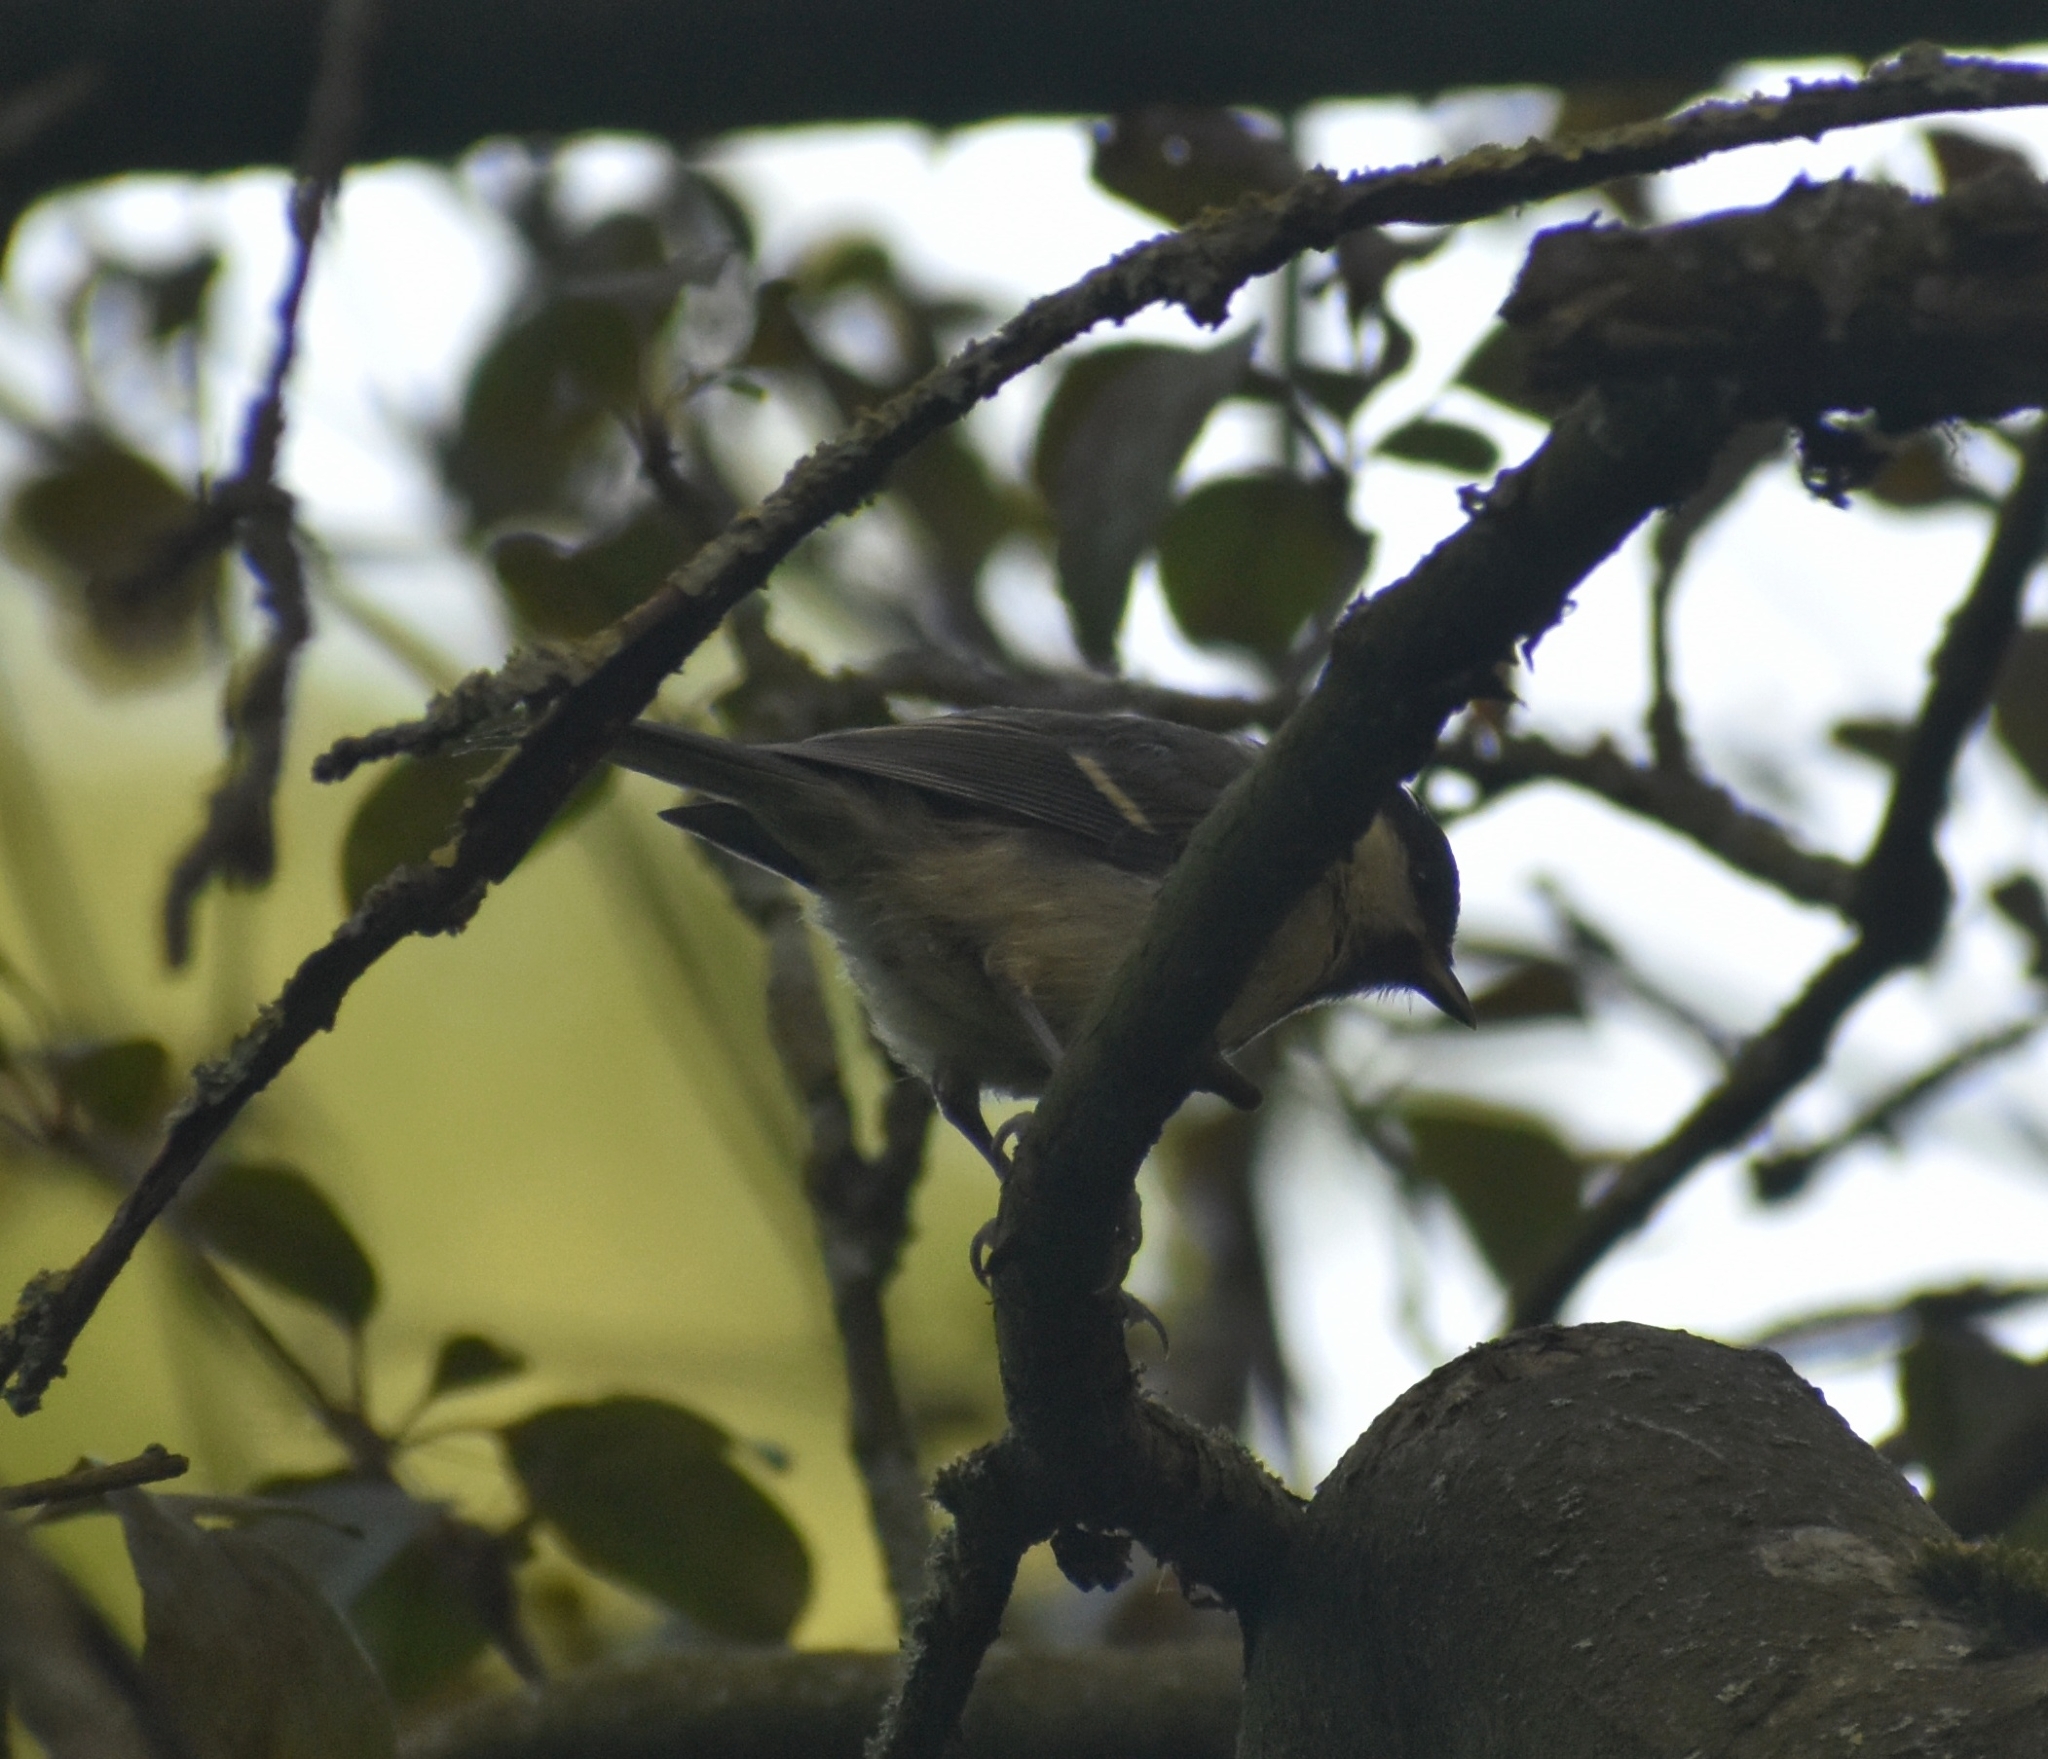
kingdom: Animalia
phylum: Chordata
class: Aves
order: Passeriformes
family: Paridae
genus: Parus
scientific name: Parus major
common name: Great tit
